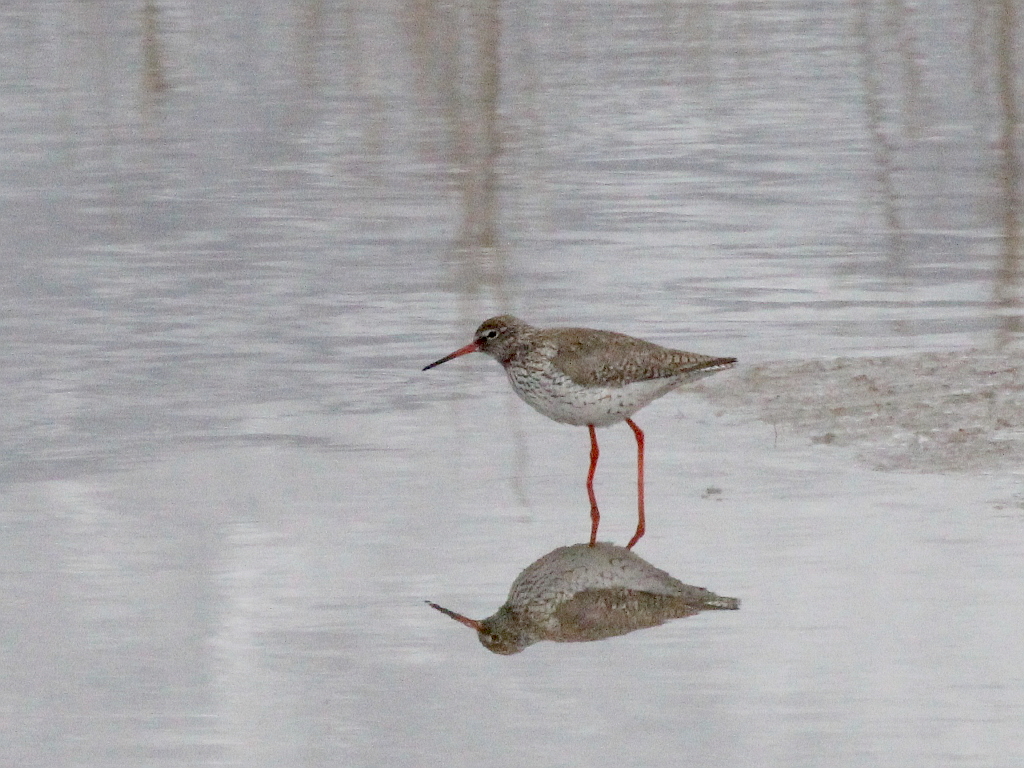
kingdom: Animalia
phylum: Chordata
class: Aves
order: Charadriiformes
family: Scolopacidae
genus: Tringa
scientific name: Tringa totanus
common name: Common redshank
